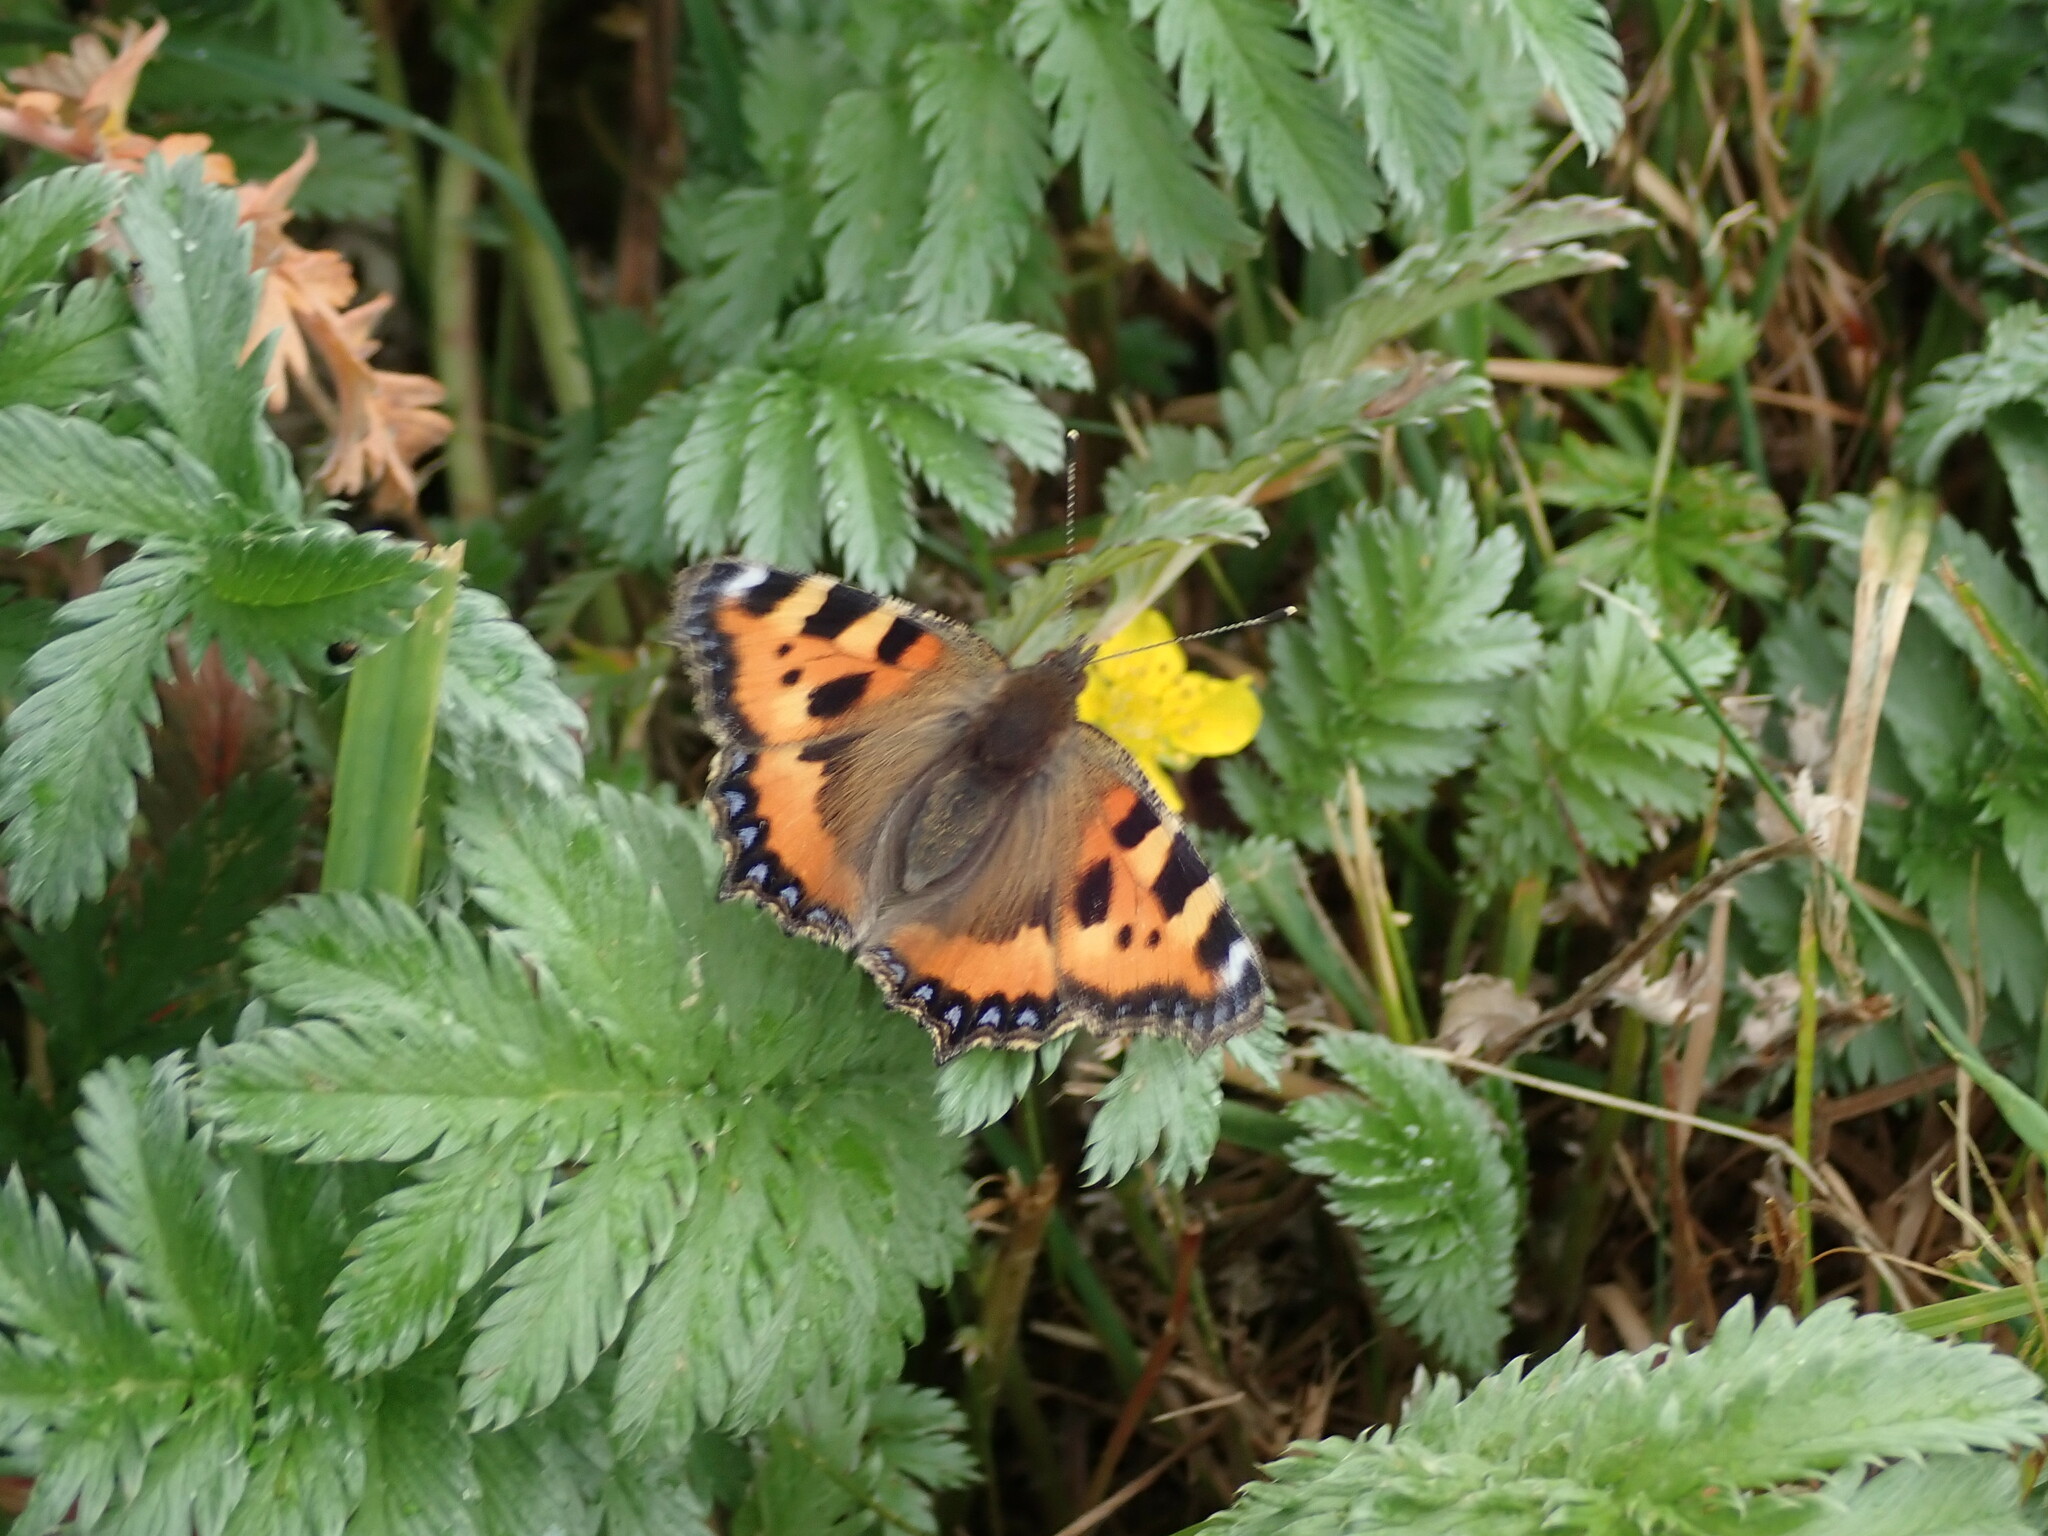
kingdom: Animalia
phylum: Arthropoda
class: Insecta
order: Lepidoptera
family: Nymphalidae
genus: Aglais
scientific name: Aglais urticae
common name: Small tortoiseshell
